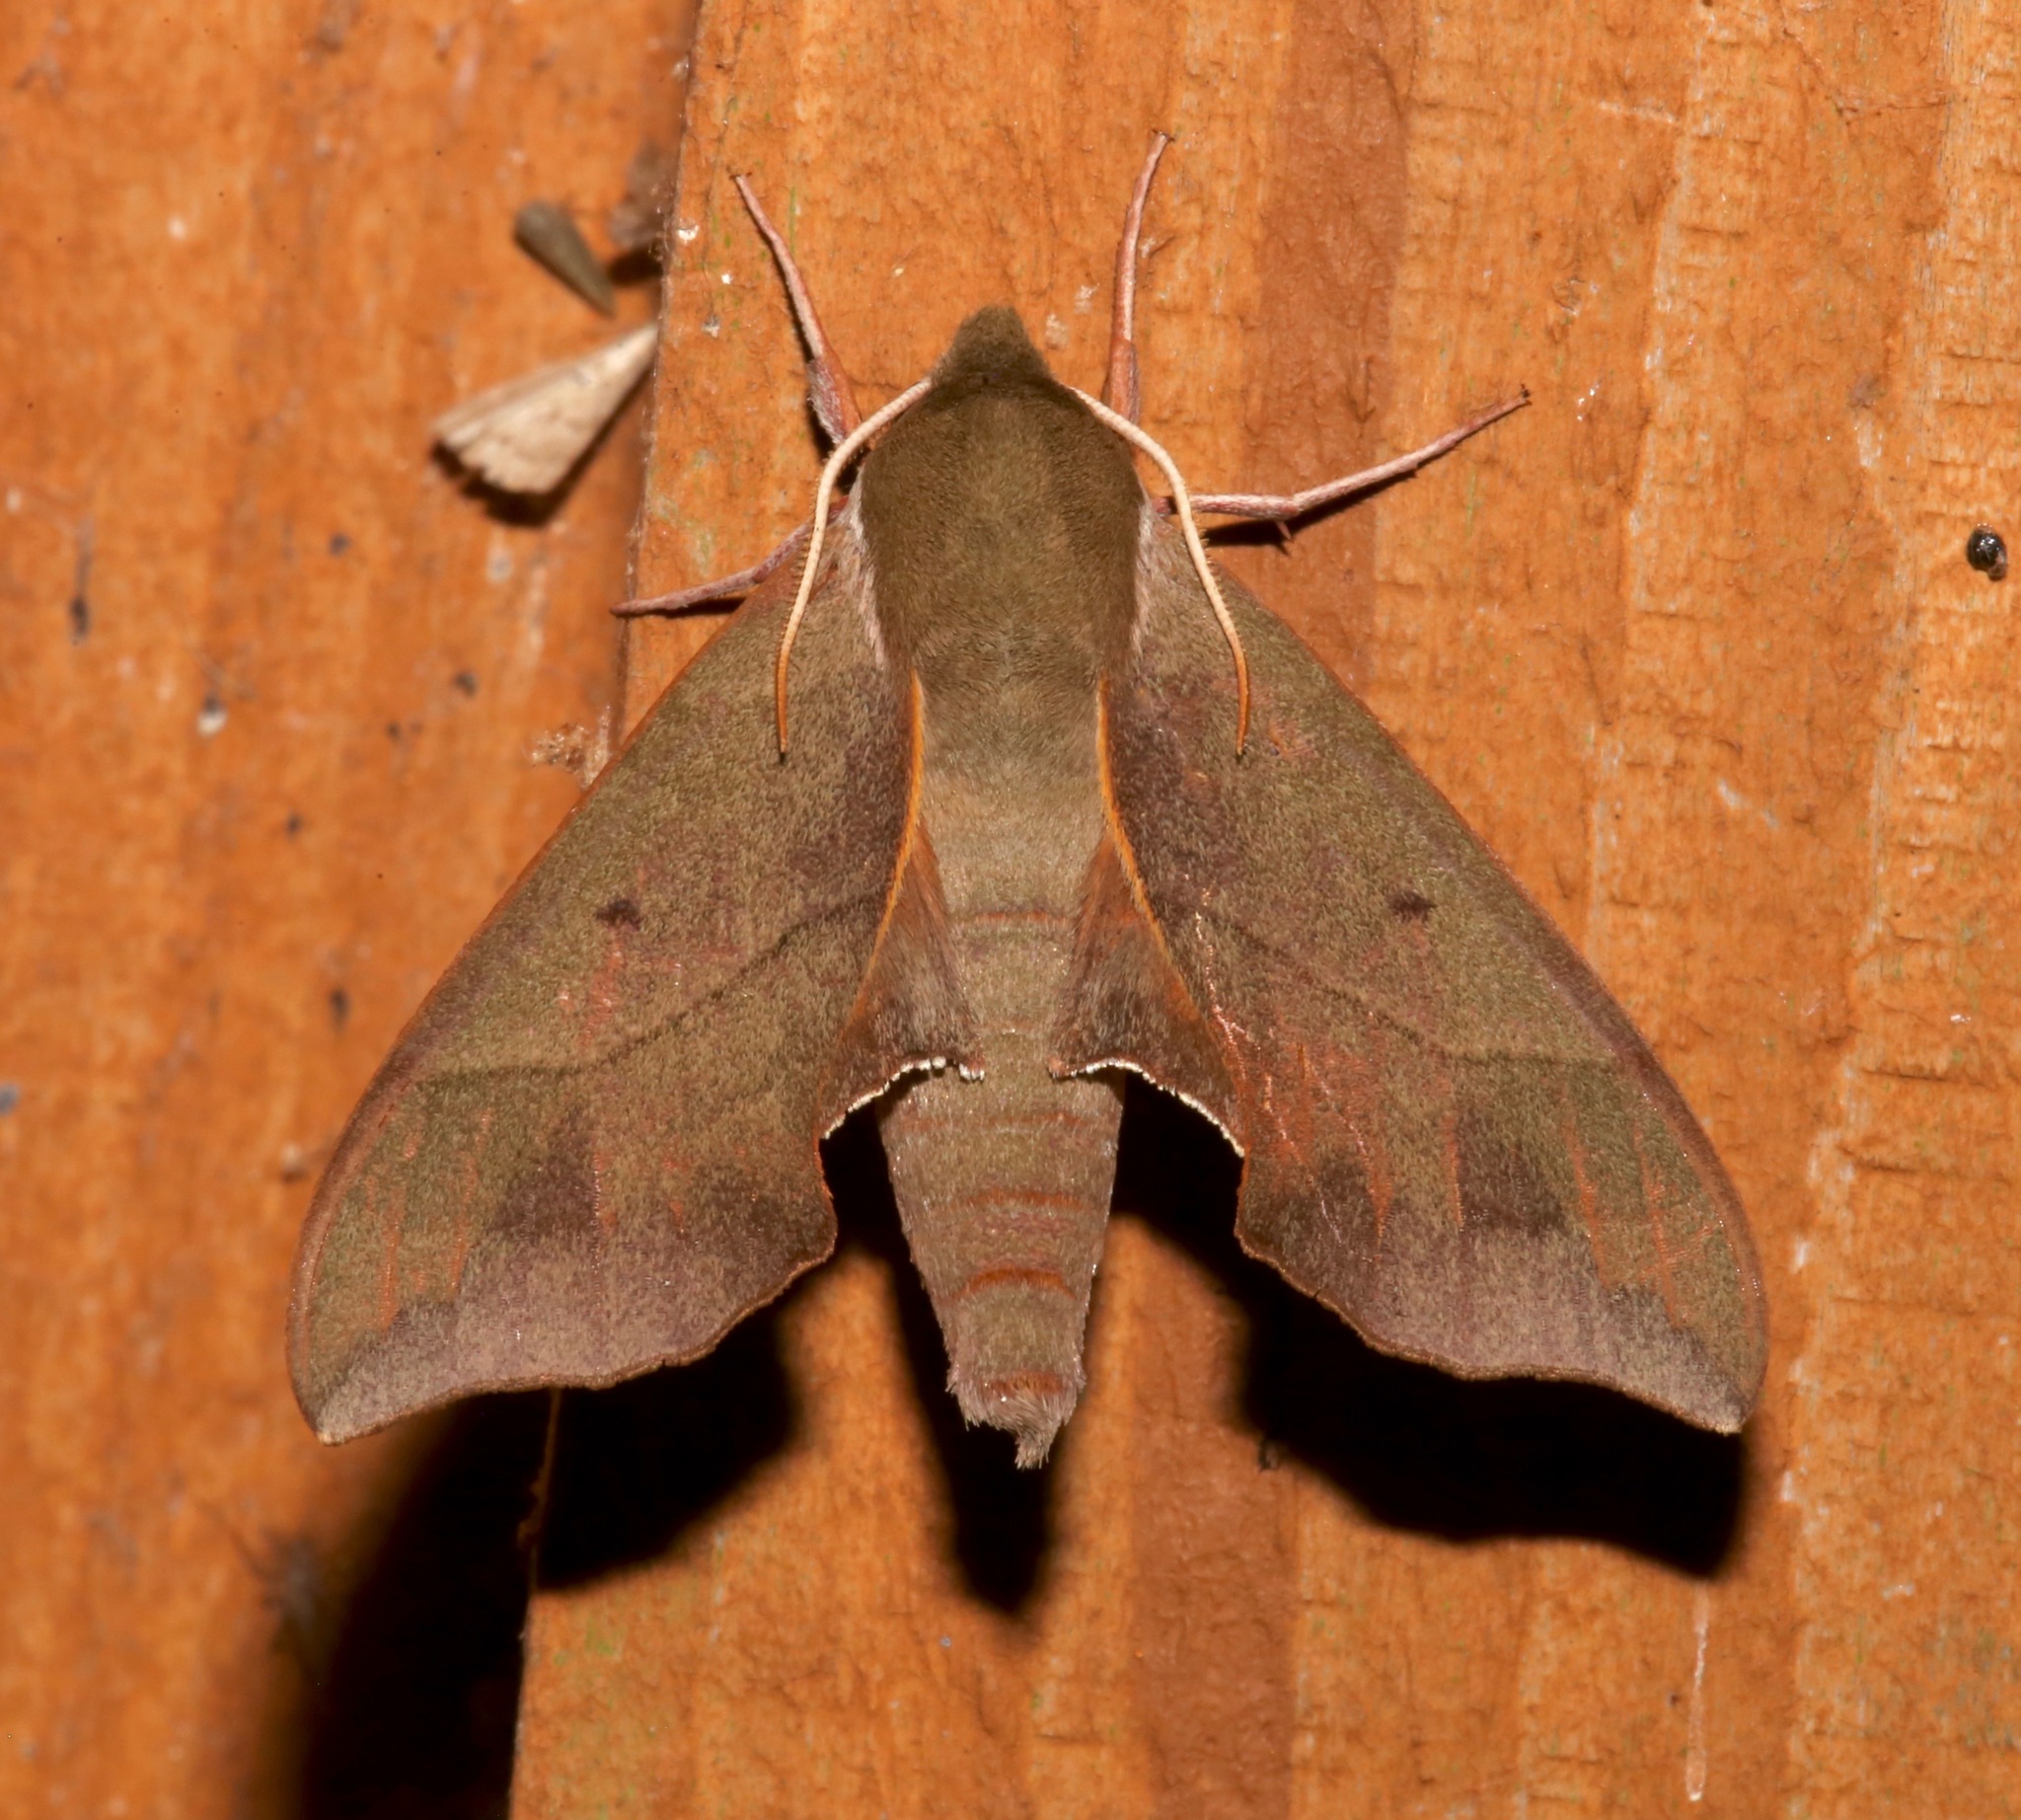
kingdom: Animalia
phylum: Arthropoda
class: Insecta
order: Lepidoptera
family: Sphingidae
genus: Darapsa
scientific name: Darapsa myron
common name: Hog sphinx
